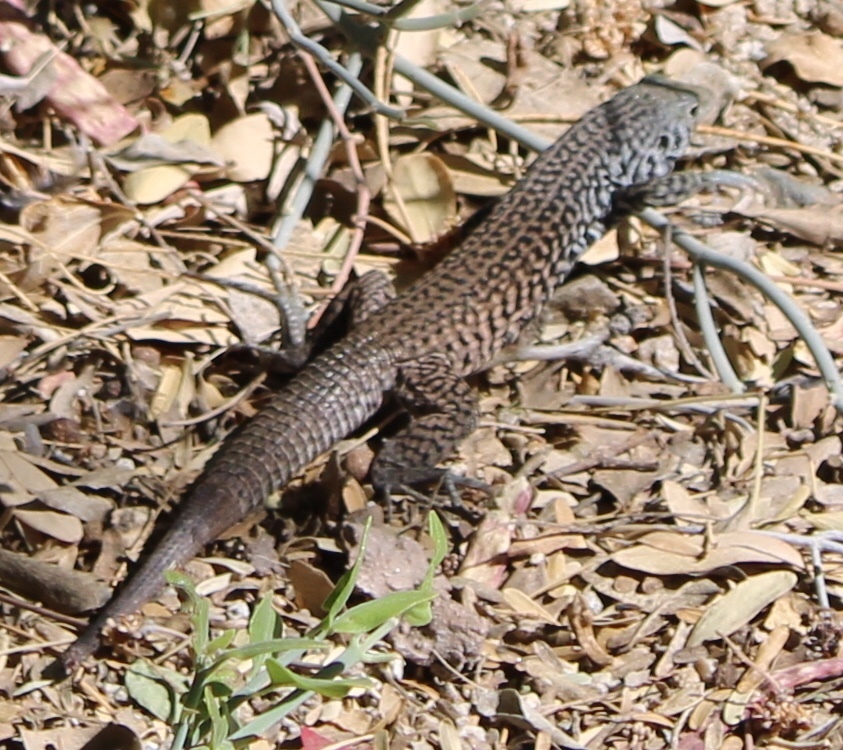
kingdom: Animalia
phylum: Chordata
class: Squamata
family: Teiidae
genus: Aspidoscelis
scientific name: Aspidoscelis tigris
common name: Tiger whiptail
